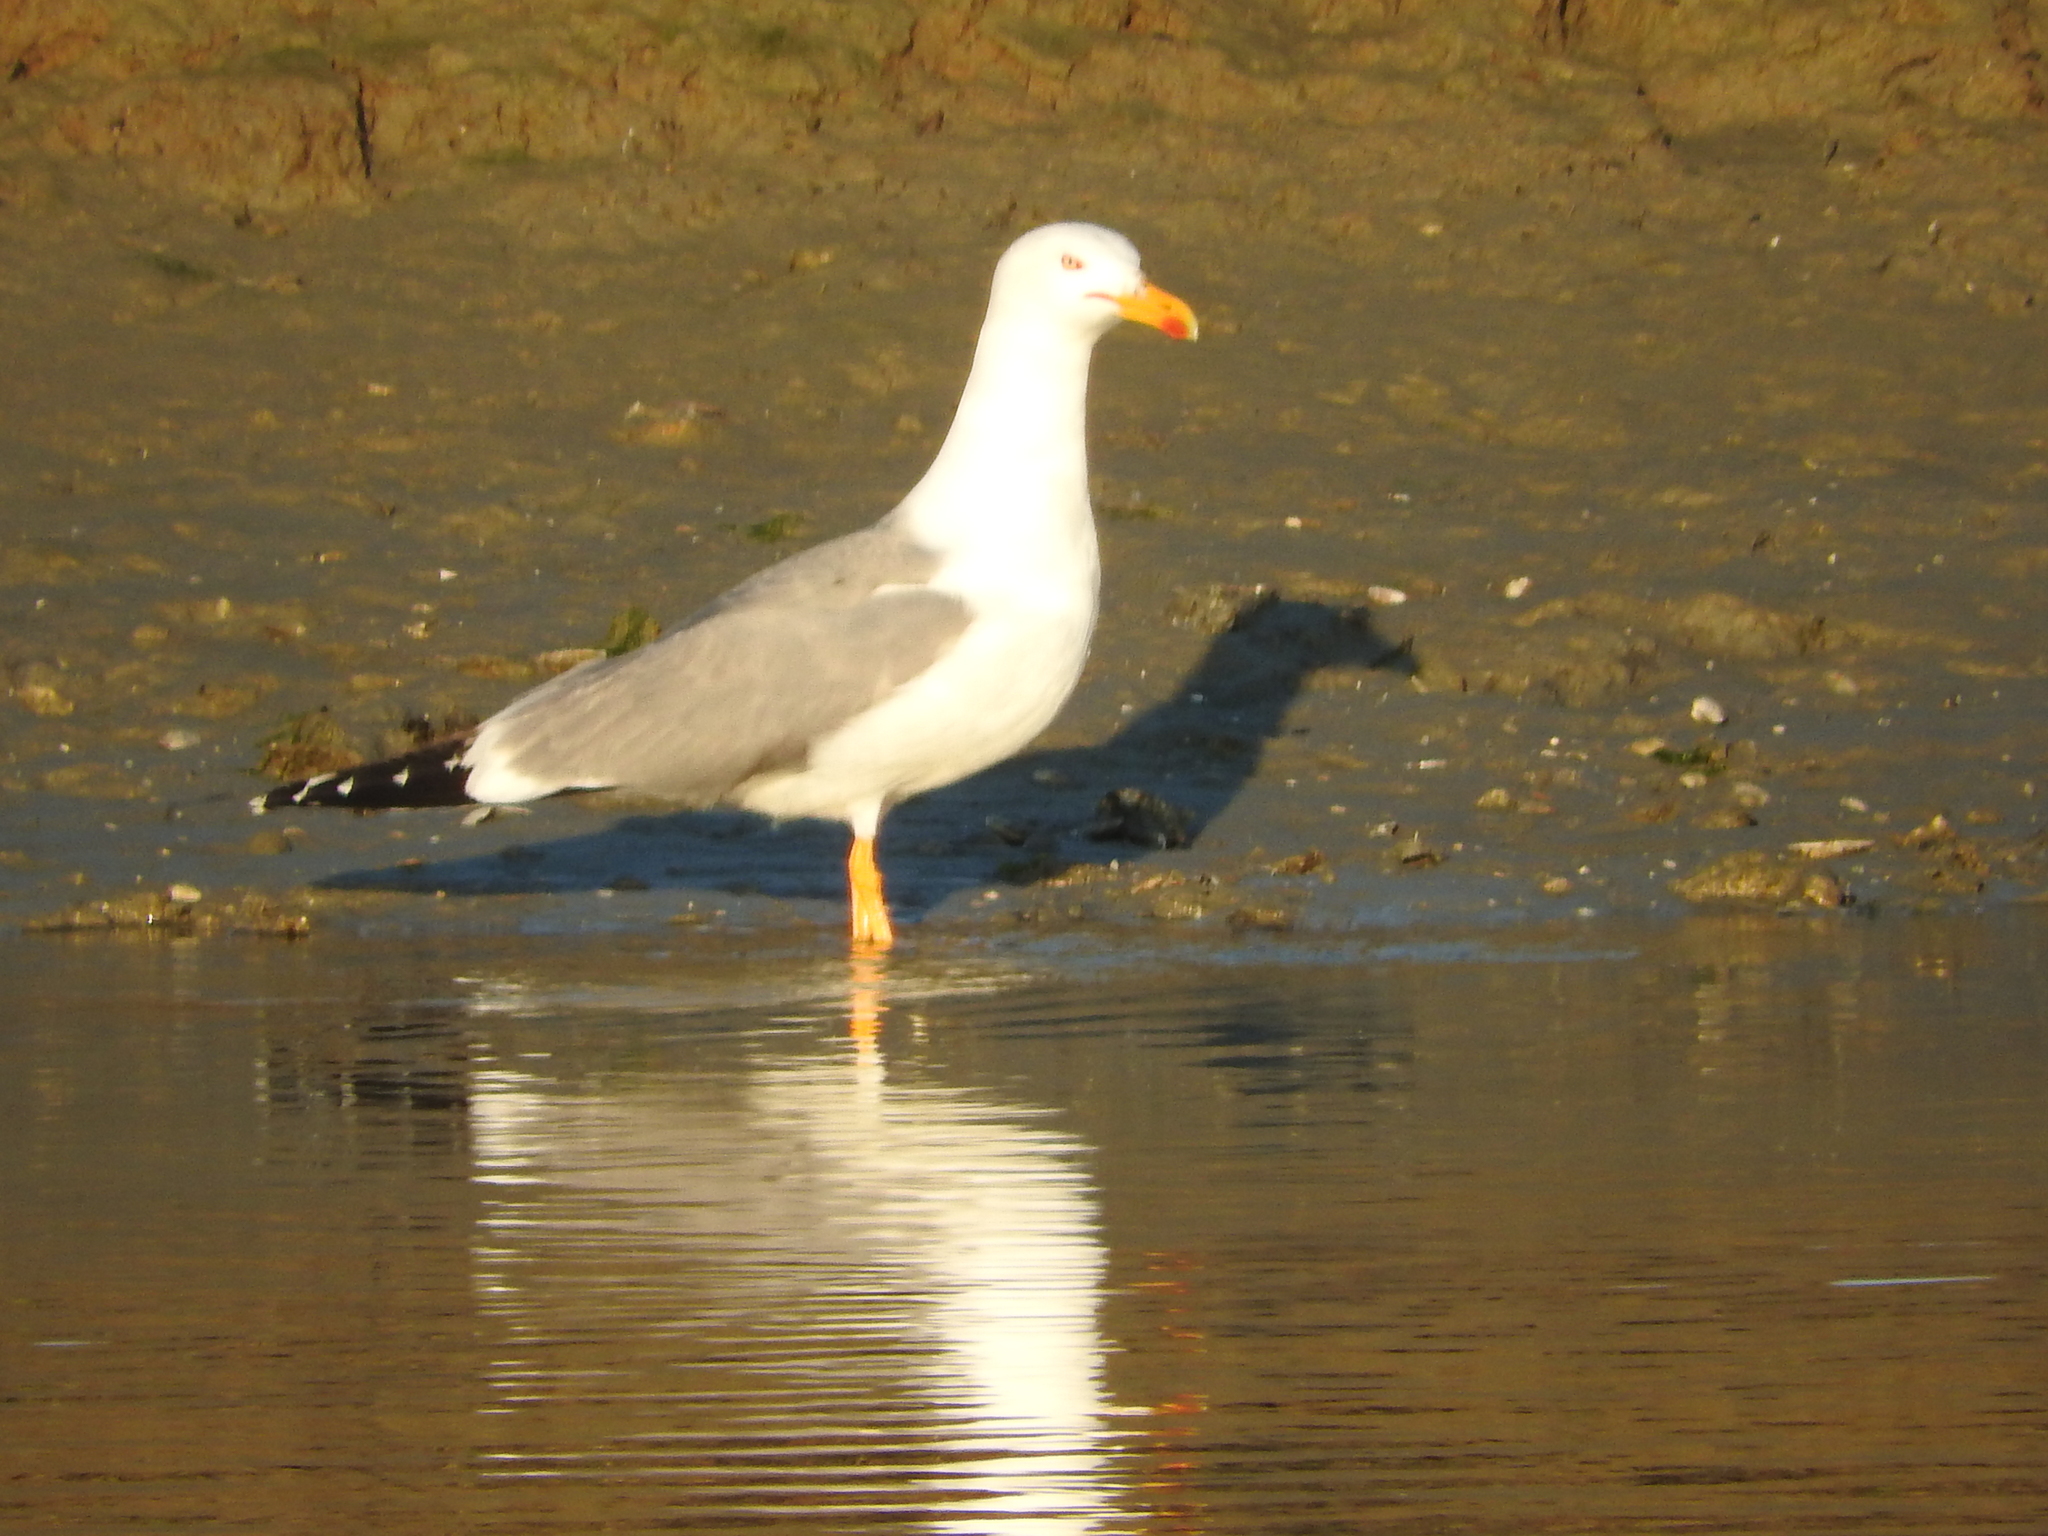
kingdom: Animalia
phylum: Chordata
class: Aves
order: Charadriiformes
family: Laridae
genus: Larus
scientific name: Larus michahellis
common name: Yellow-legged gull
